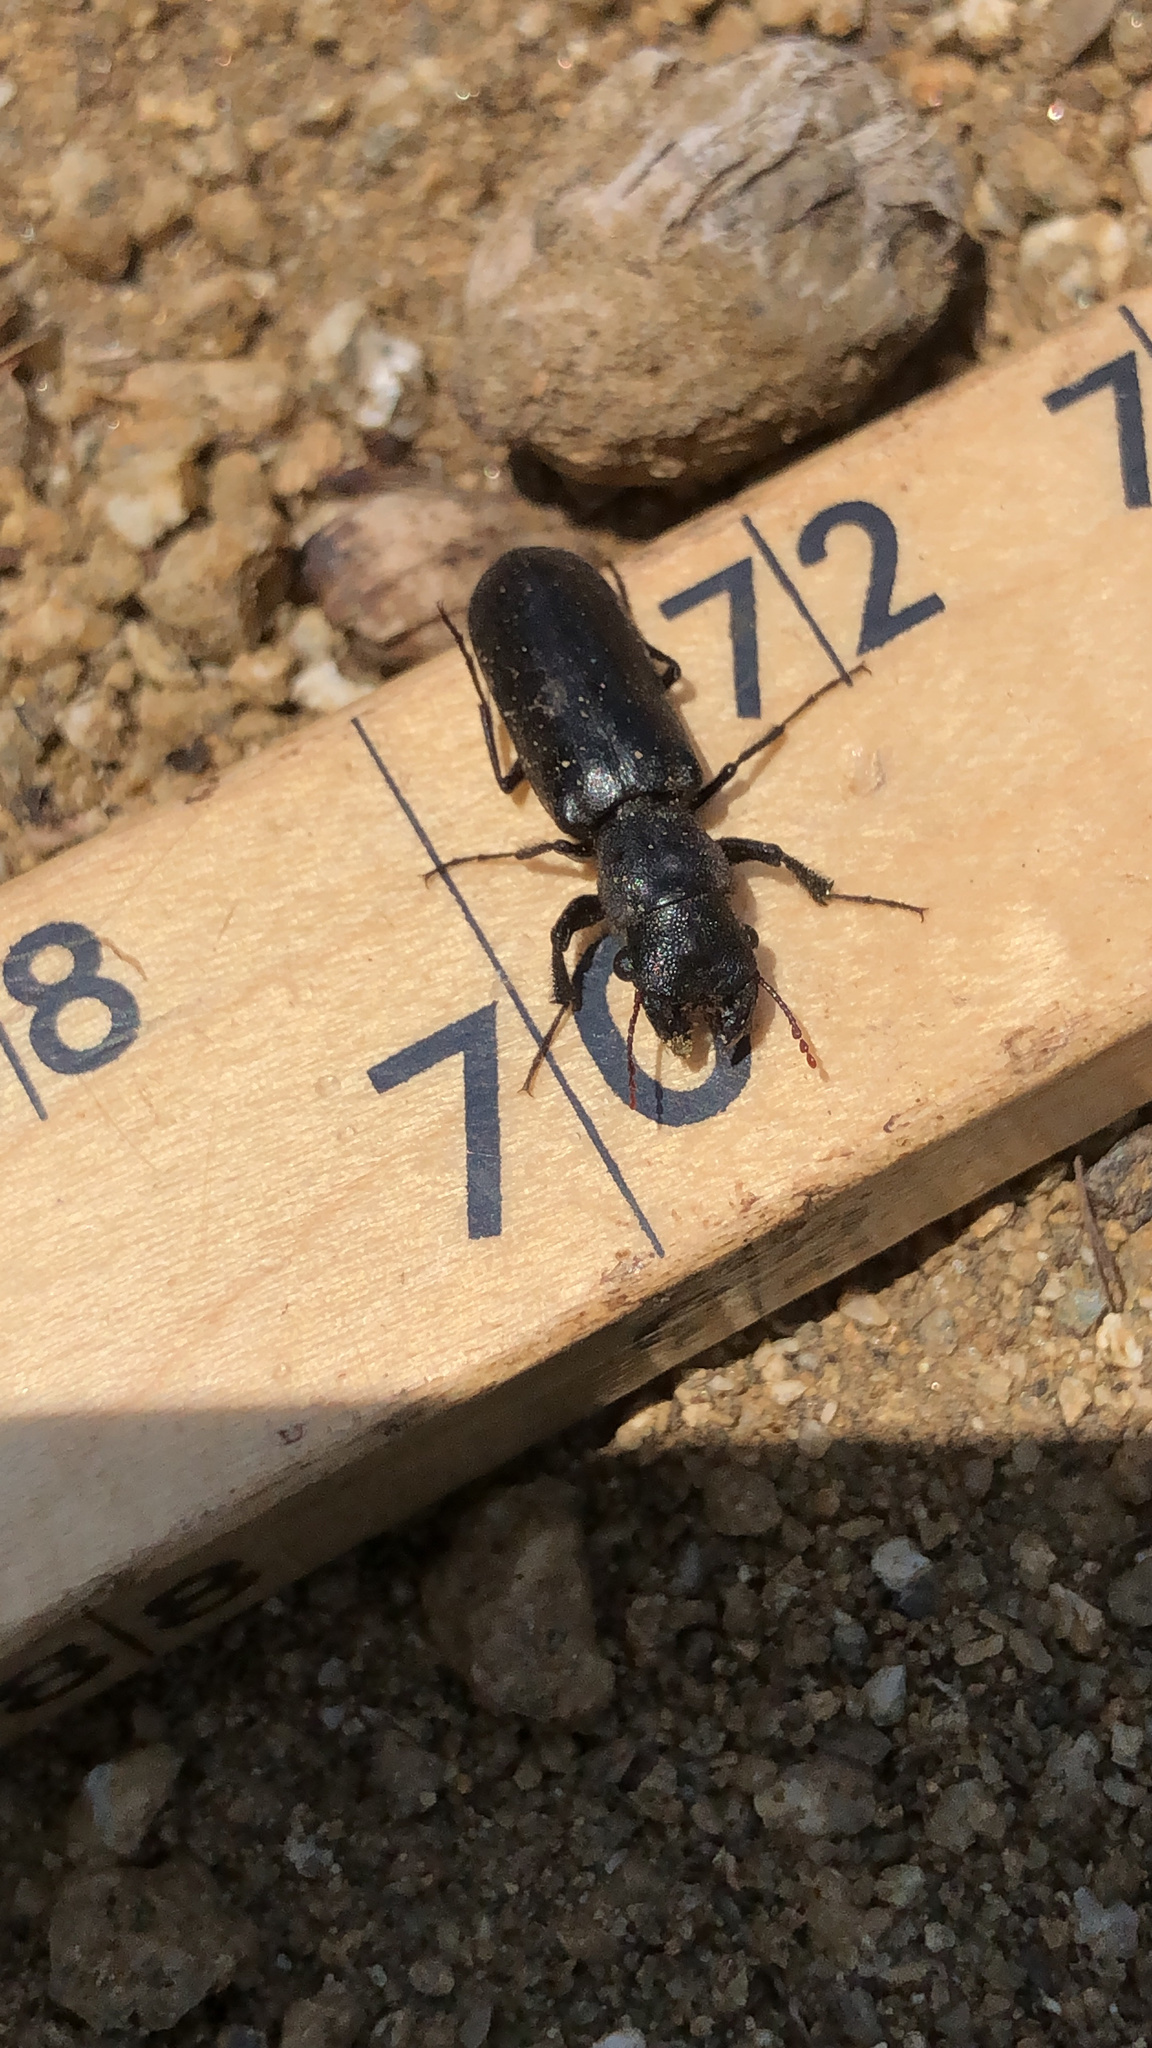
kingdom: Animalia
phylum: Arthropoda
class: Insecta
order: Coleoptera
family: Bostrichidae
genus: Polycaon
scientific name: Polycaon stoutii
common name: Powderpost beetle
